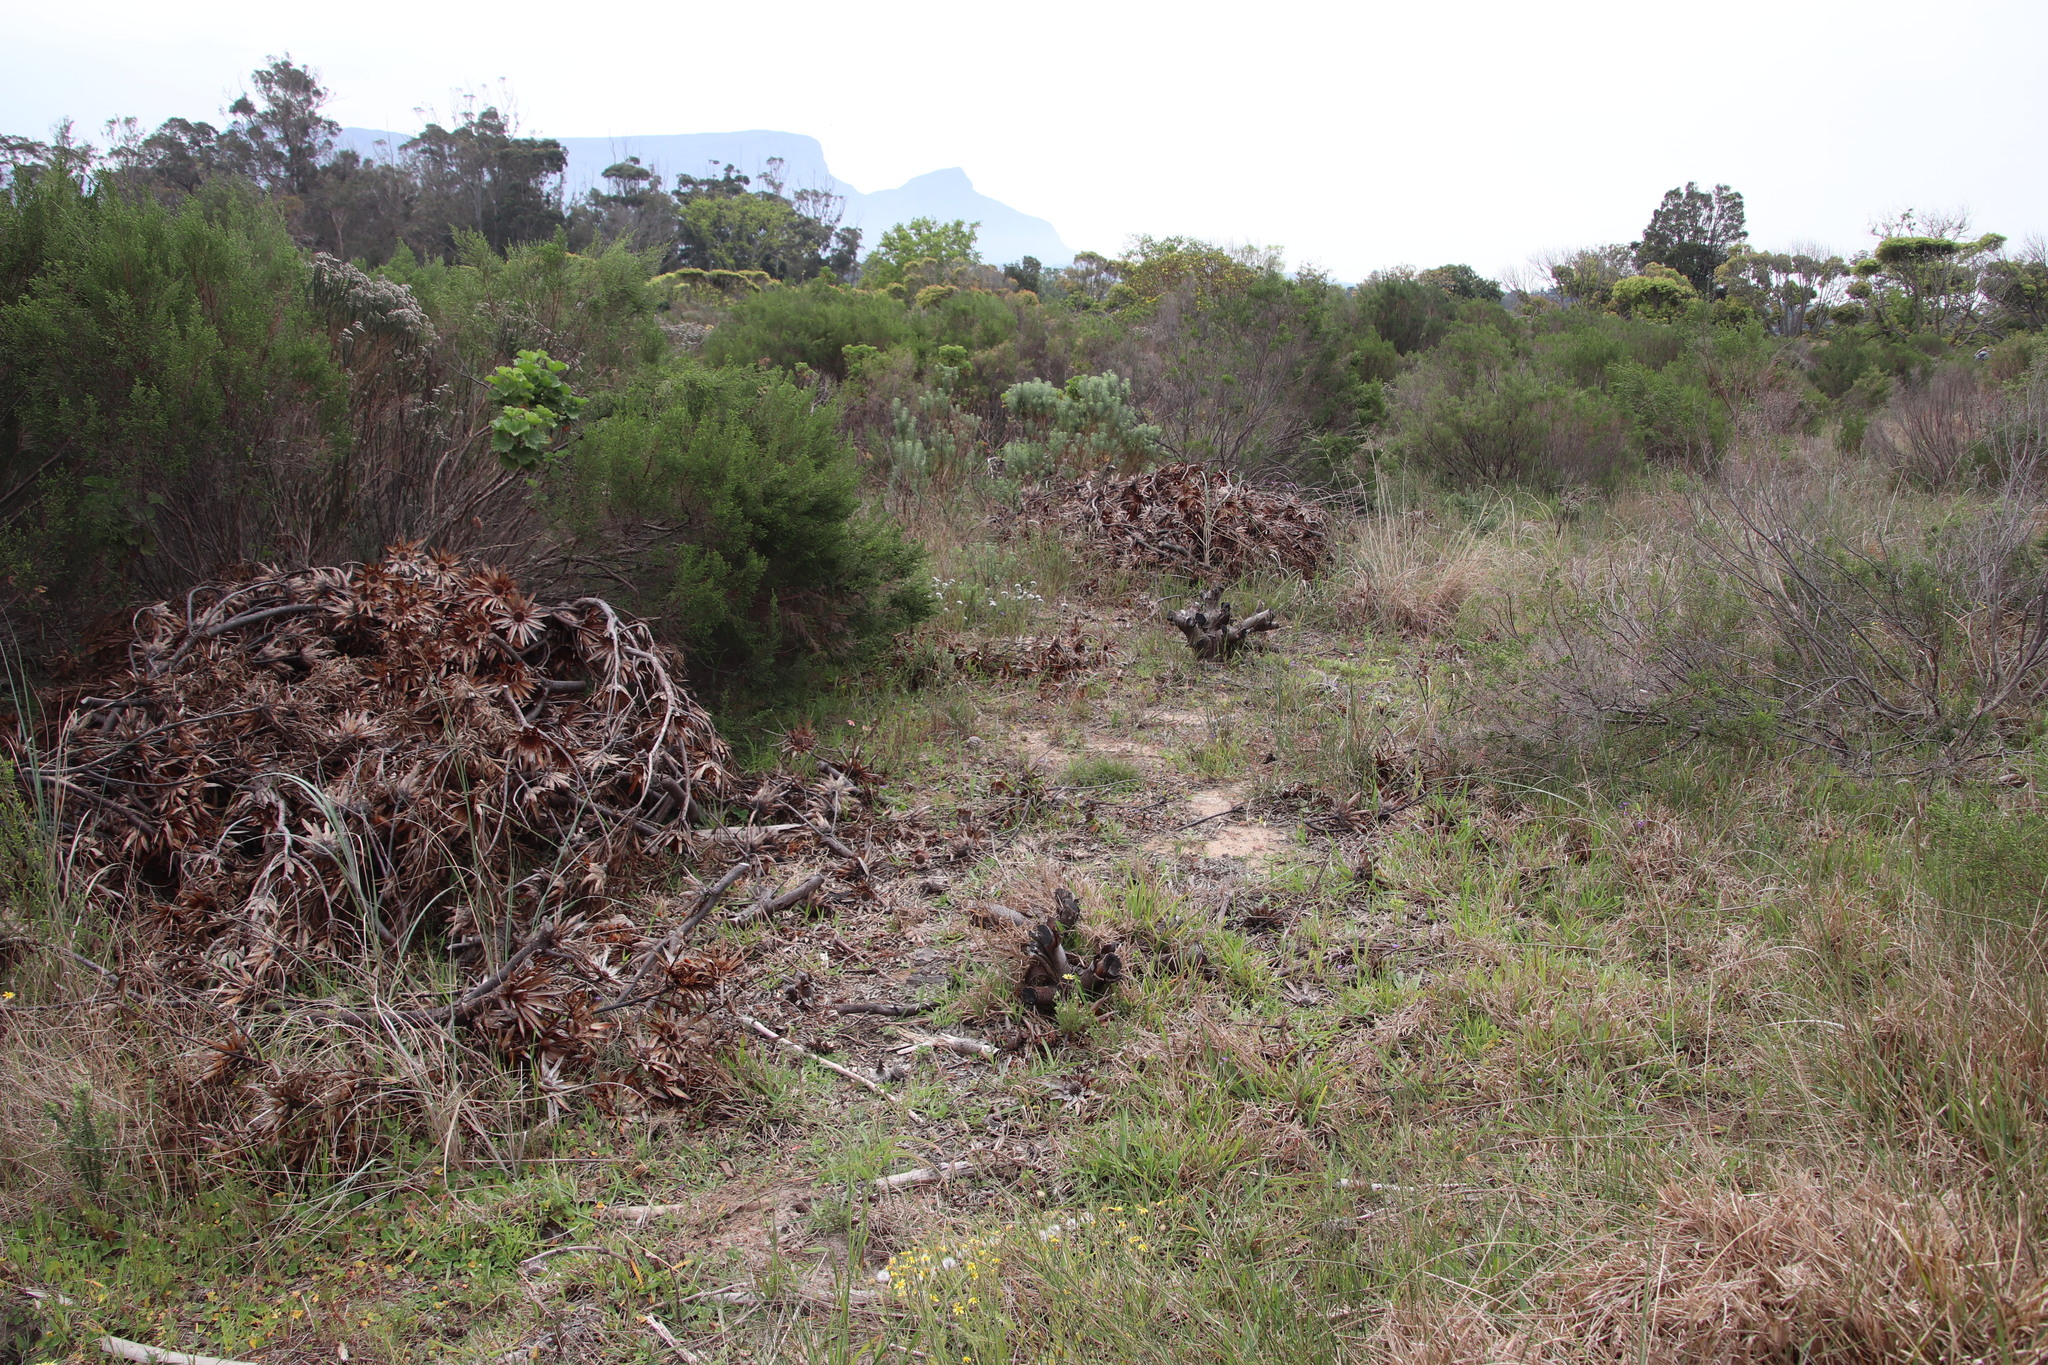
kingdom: Plantae
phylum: Tracheophyta
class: Magnoliopsida
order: Proteales
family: Proteaceae
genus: Protea
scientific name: Protea repens
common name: Sugarbush
